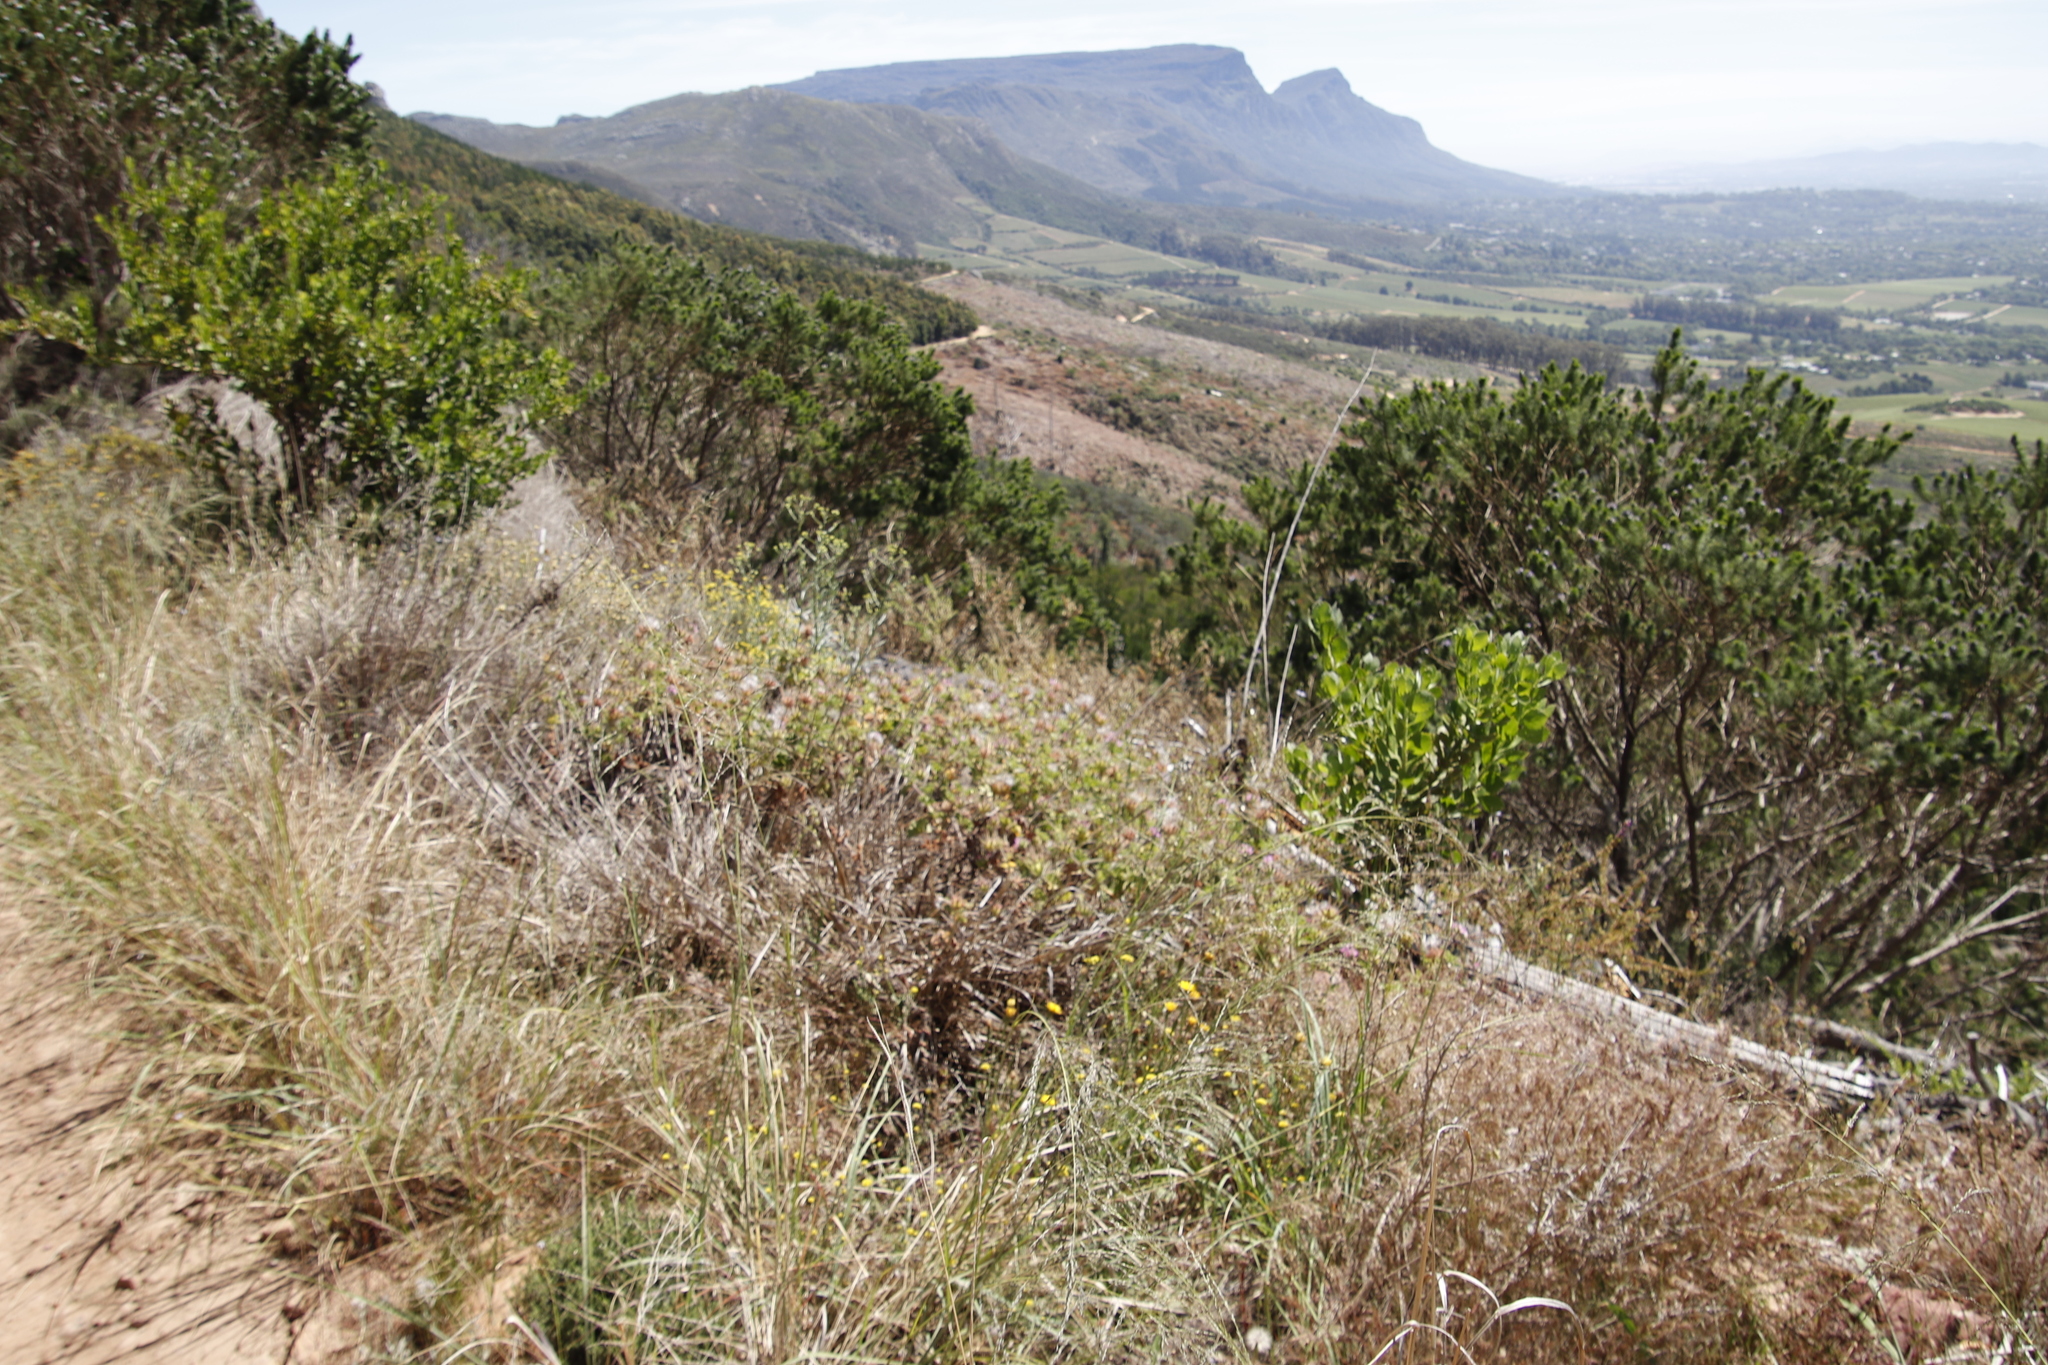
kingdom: Plantae
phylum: Tracheophyta
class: Magnoliopsida
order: Geraniales
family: Geraniaceae
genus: Pelargonium
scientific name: Pelargonium capitatum
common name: Rose scented geranium
